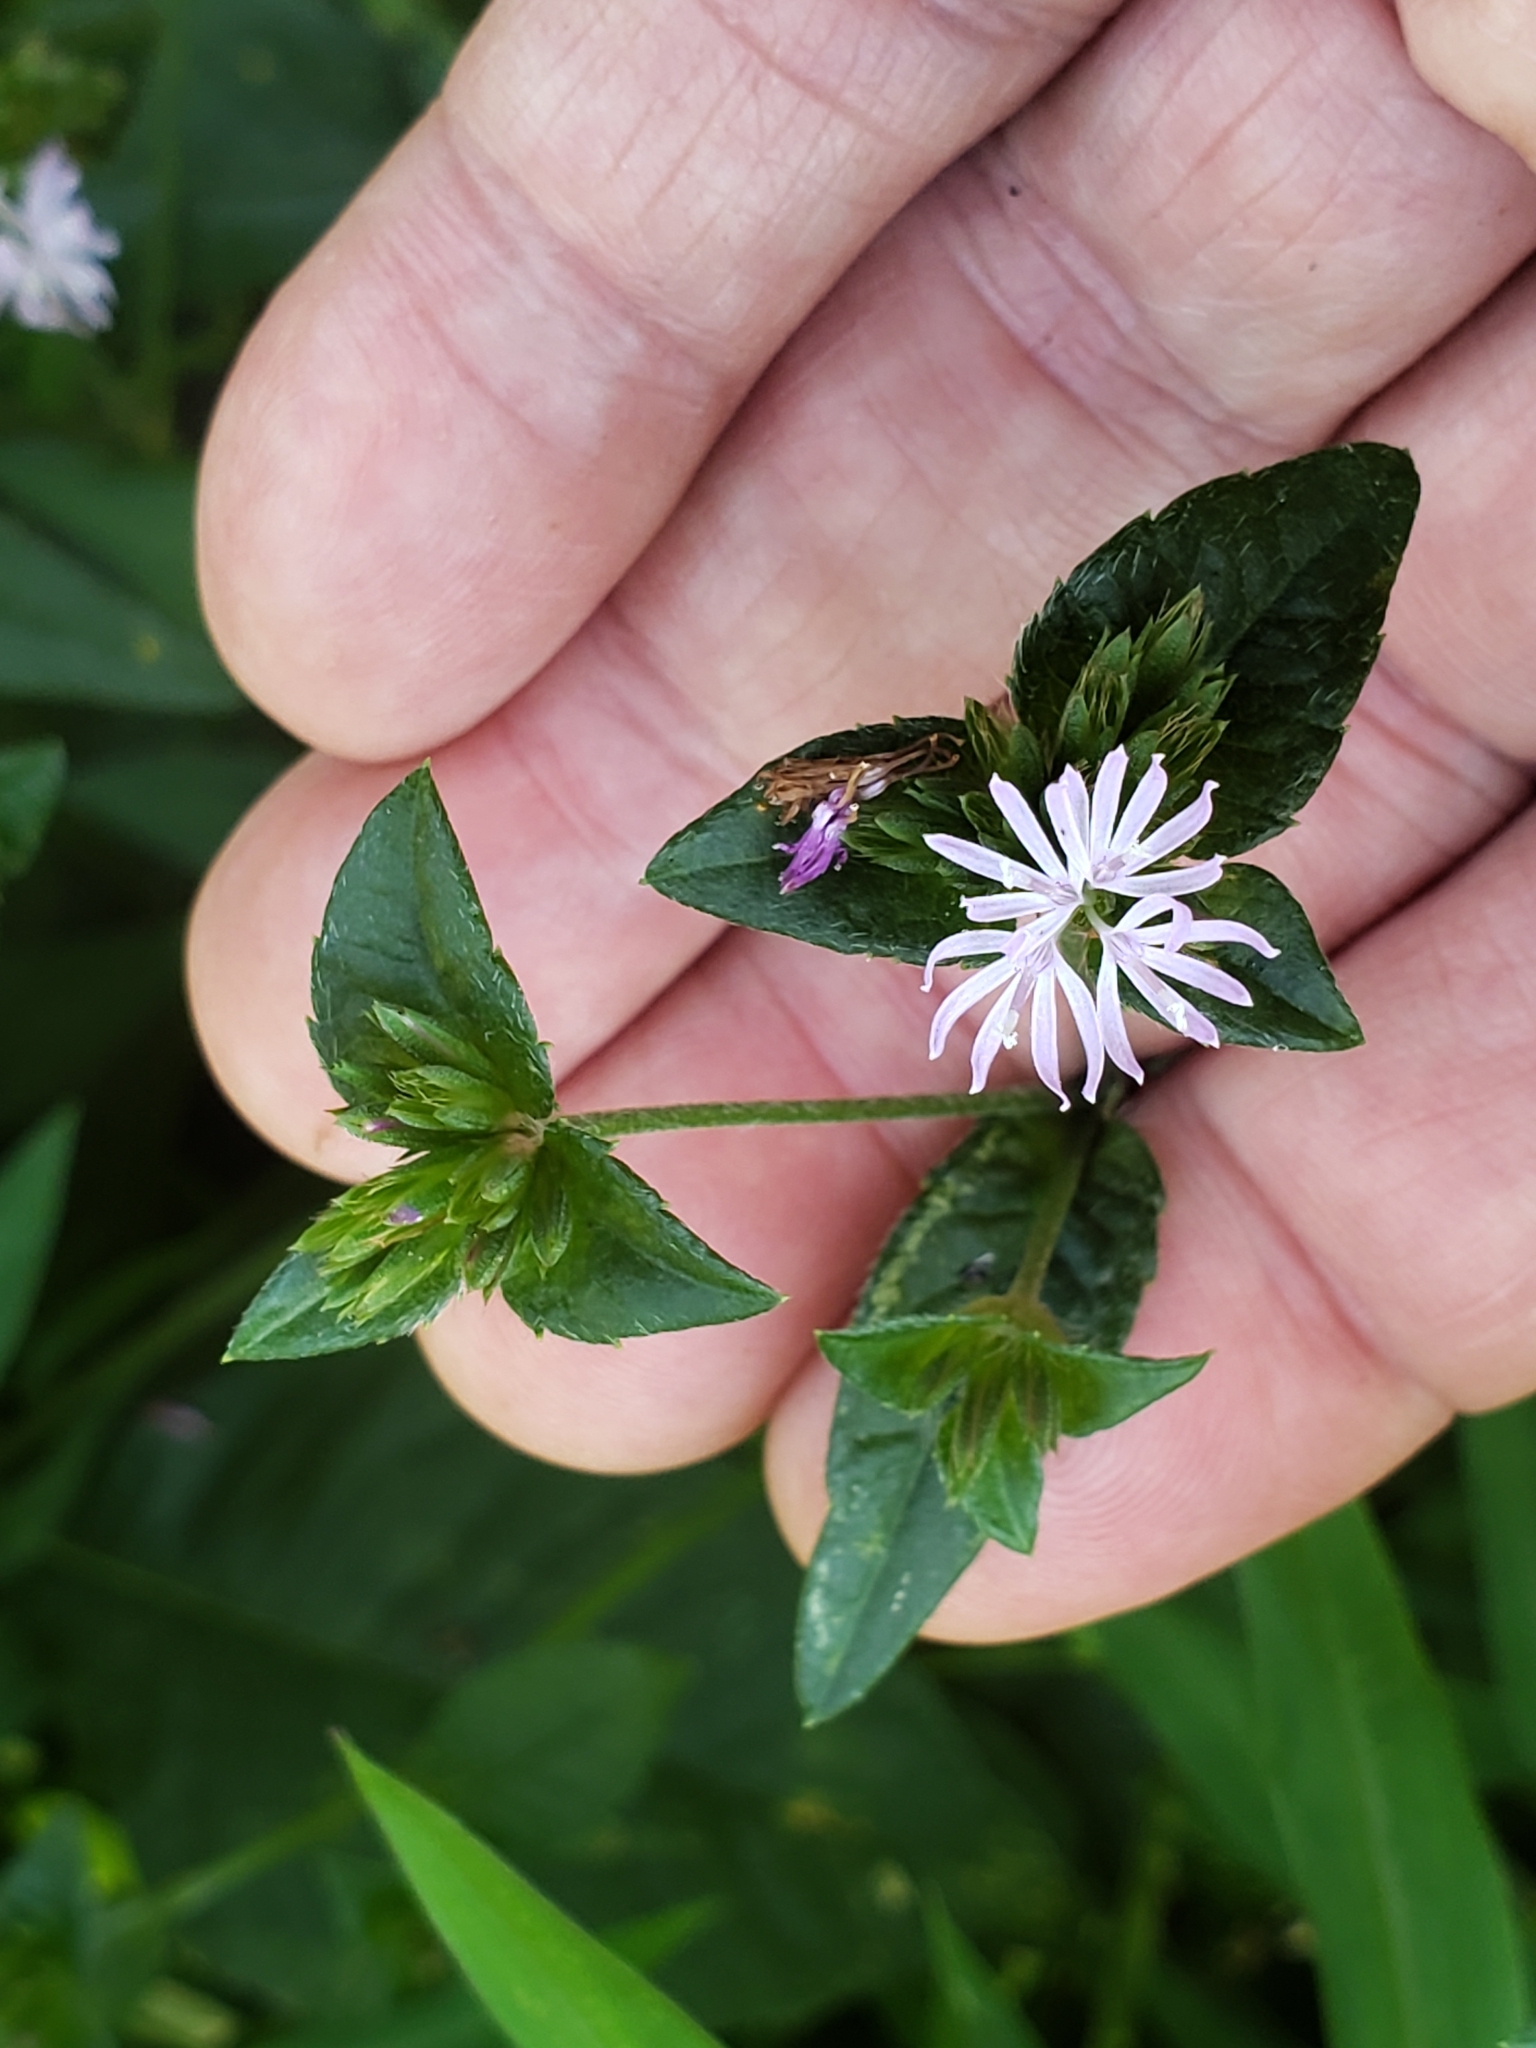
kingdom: Fungi
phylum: Basidiomycota
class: Pucciniomycetes
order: Pucciniales
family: Coleosporiaceae
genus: Coleosporium
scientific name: Coleosporium elephantopodis
